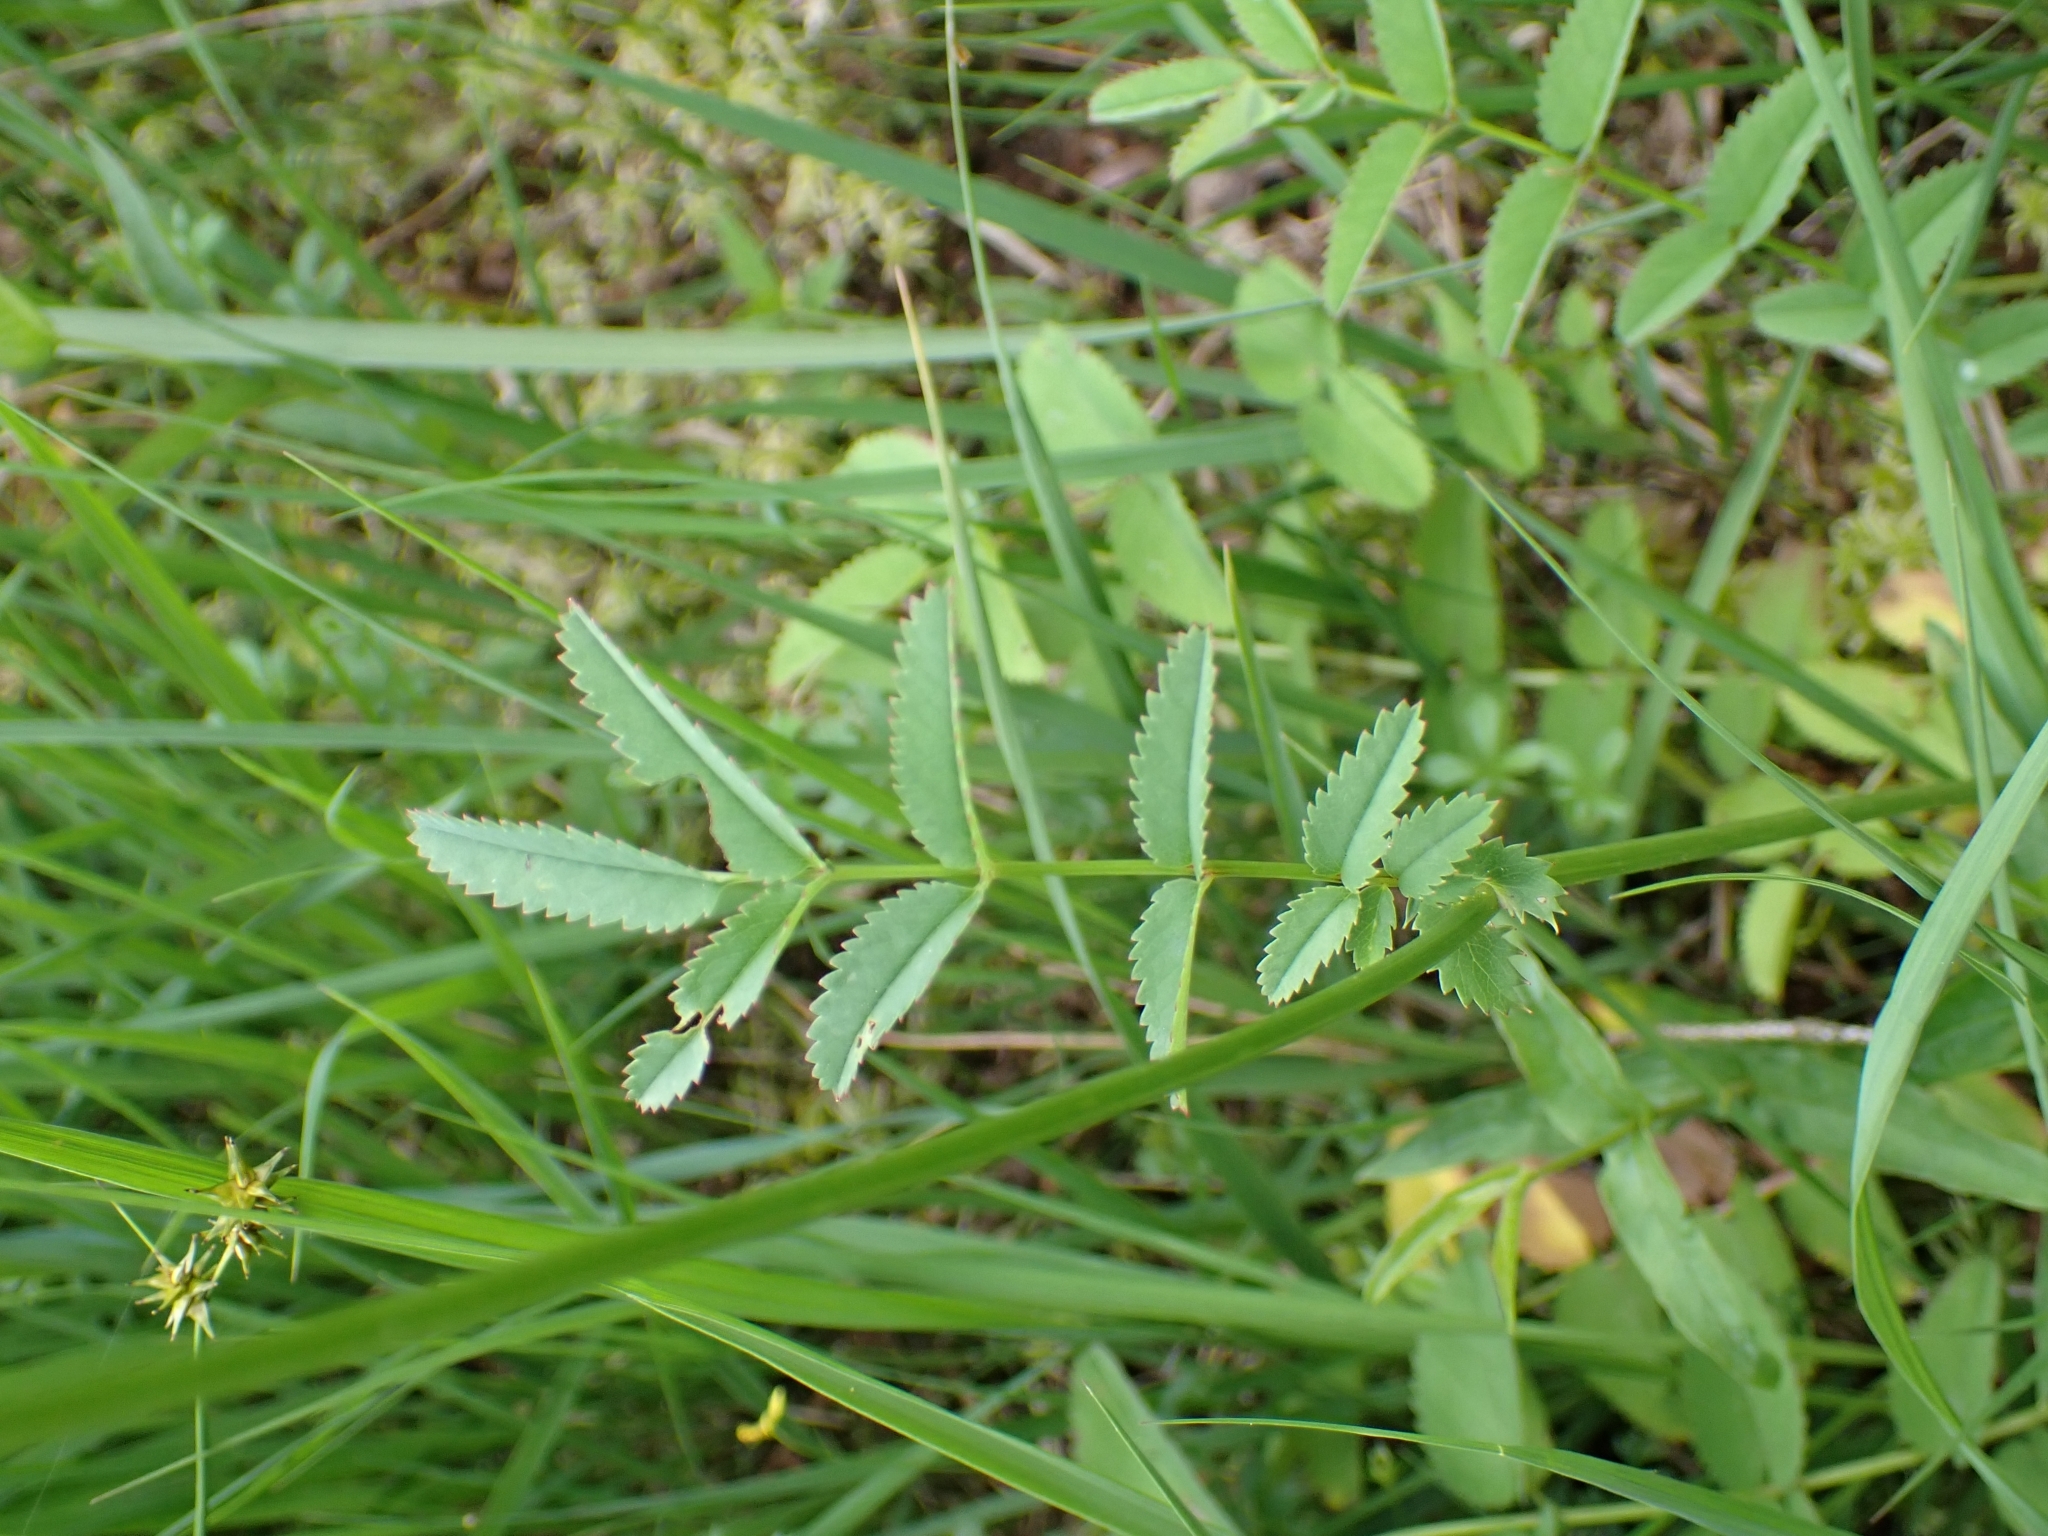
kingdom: Plantae
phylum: Tracheophyta
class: Magnoliopsida
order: Rosales
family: Rosaceae
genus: Sanguisorba
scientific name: Sanguisorba officinalis
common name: Great burnet
